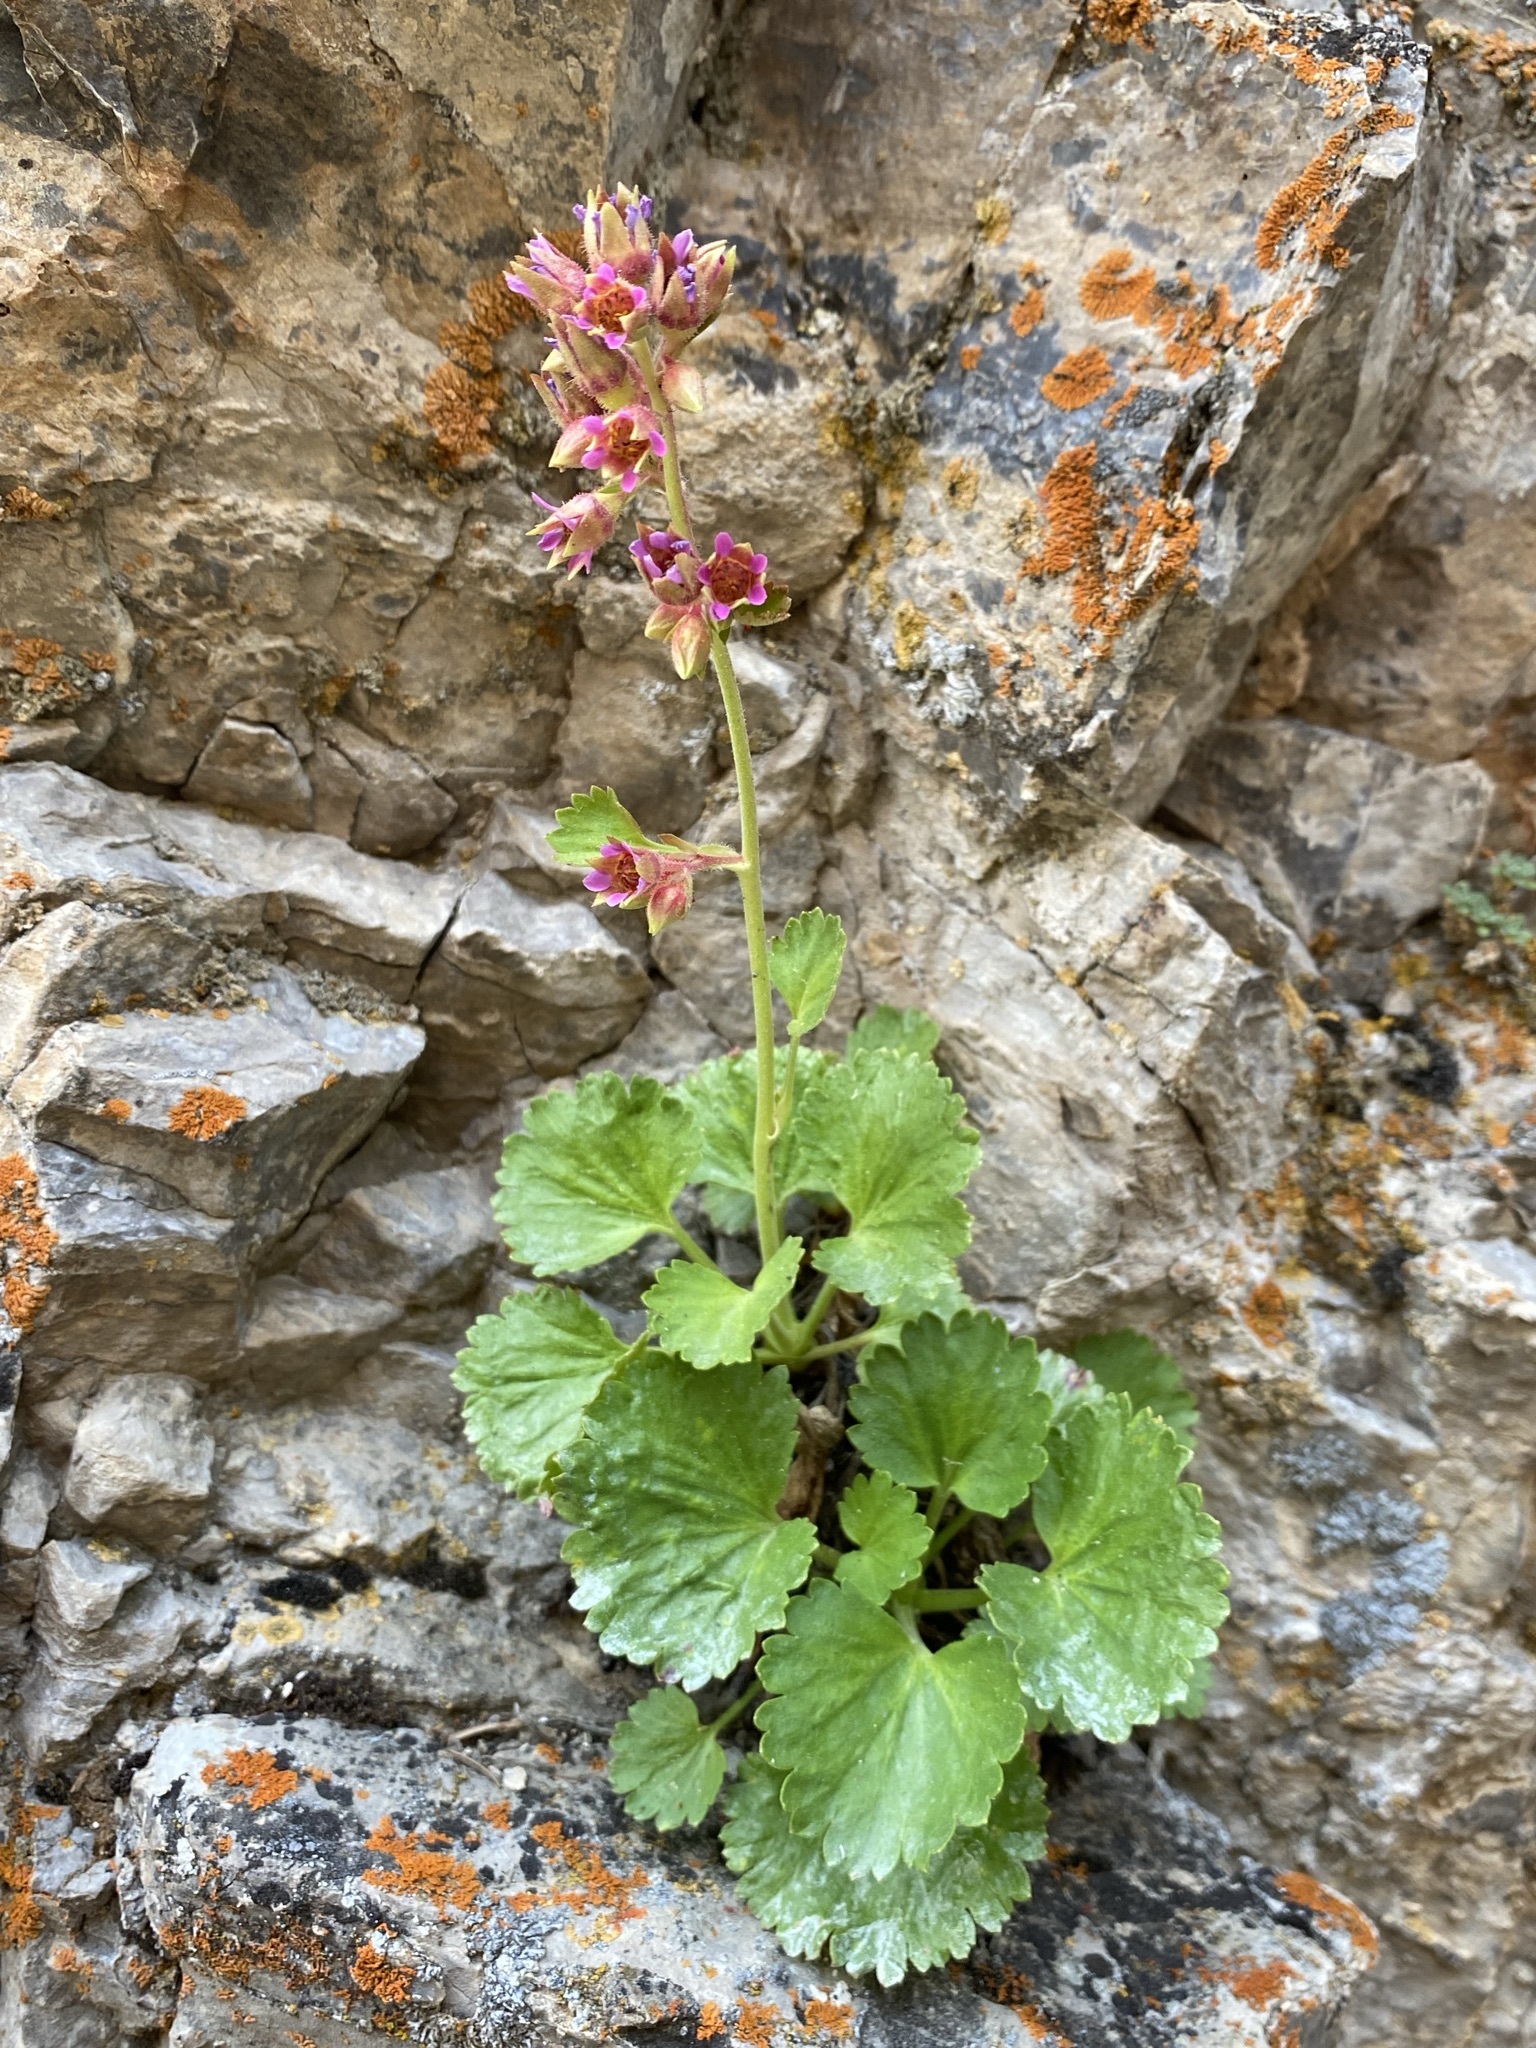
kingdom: Plantae
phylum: Tracheophyta
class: Magnoliopsida
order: Saxifragales
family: Saxifragaceae
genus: Telesonix
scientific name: Telesonix heucheriformis
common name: Alumroot brookfoam
